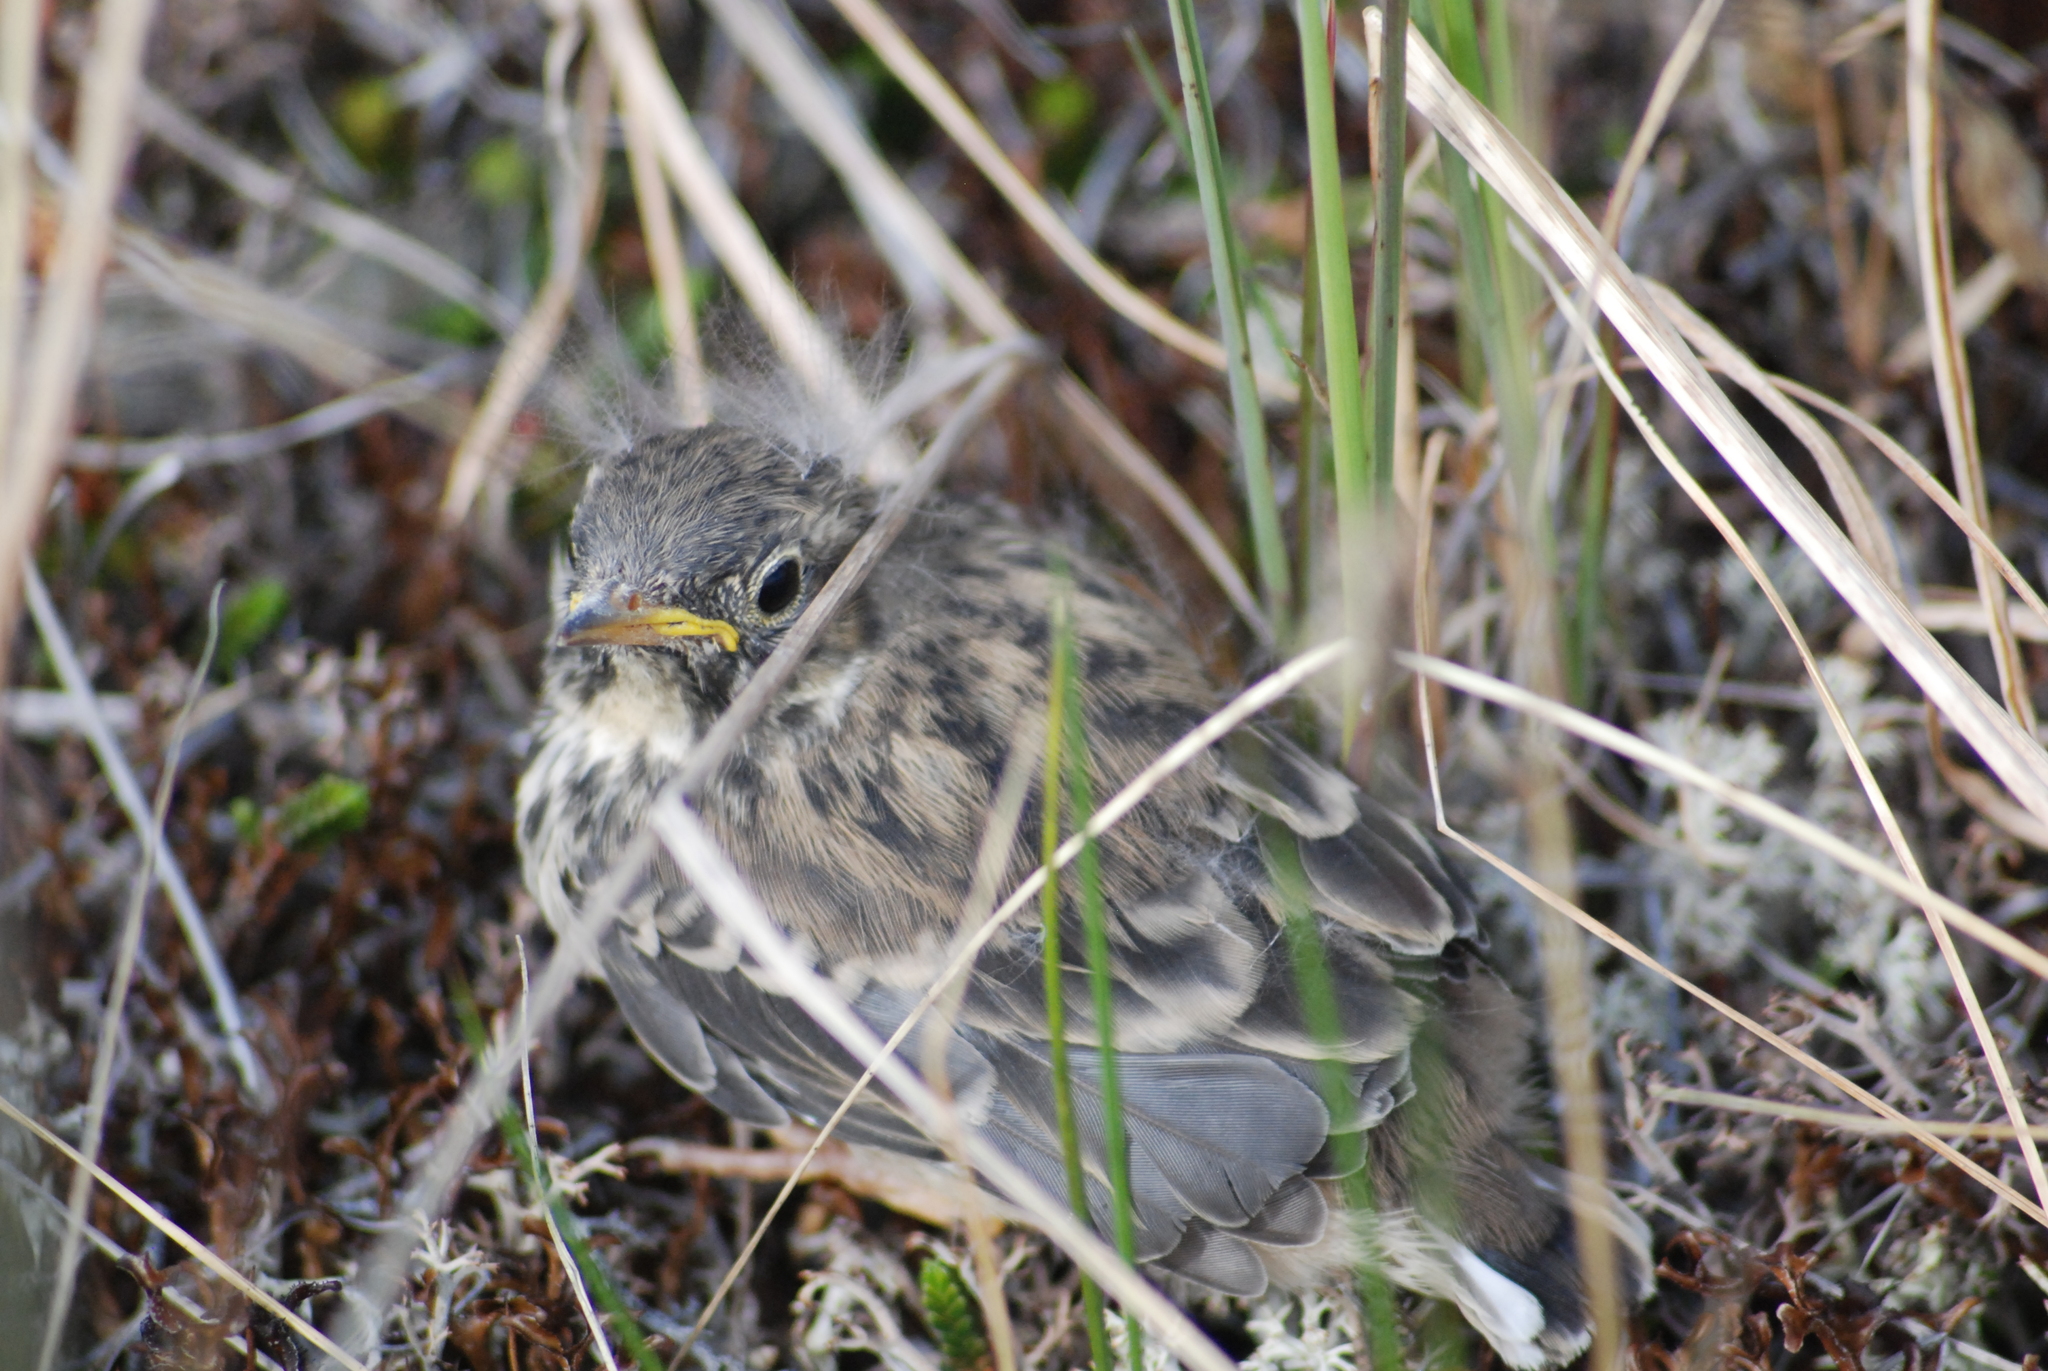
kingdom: Animalia
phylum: Chordata
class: Aves
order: Passeriformes
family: Motacillidae
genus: Anthus
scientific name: Anthus rubescens
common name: Buff-bellied pipit
